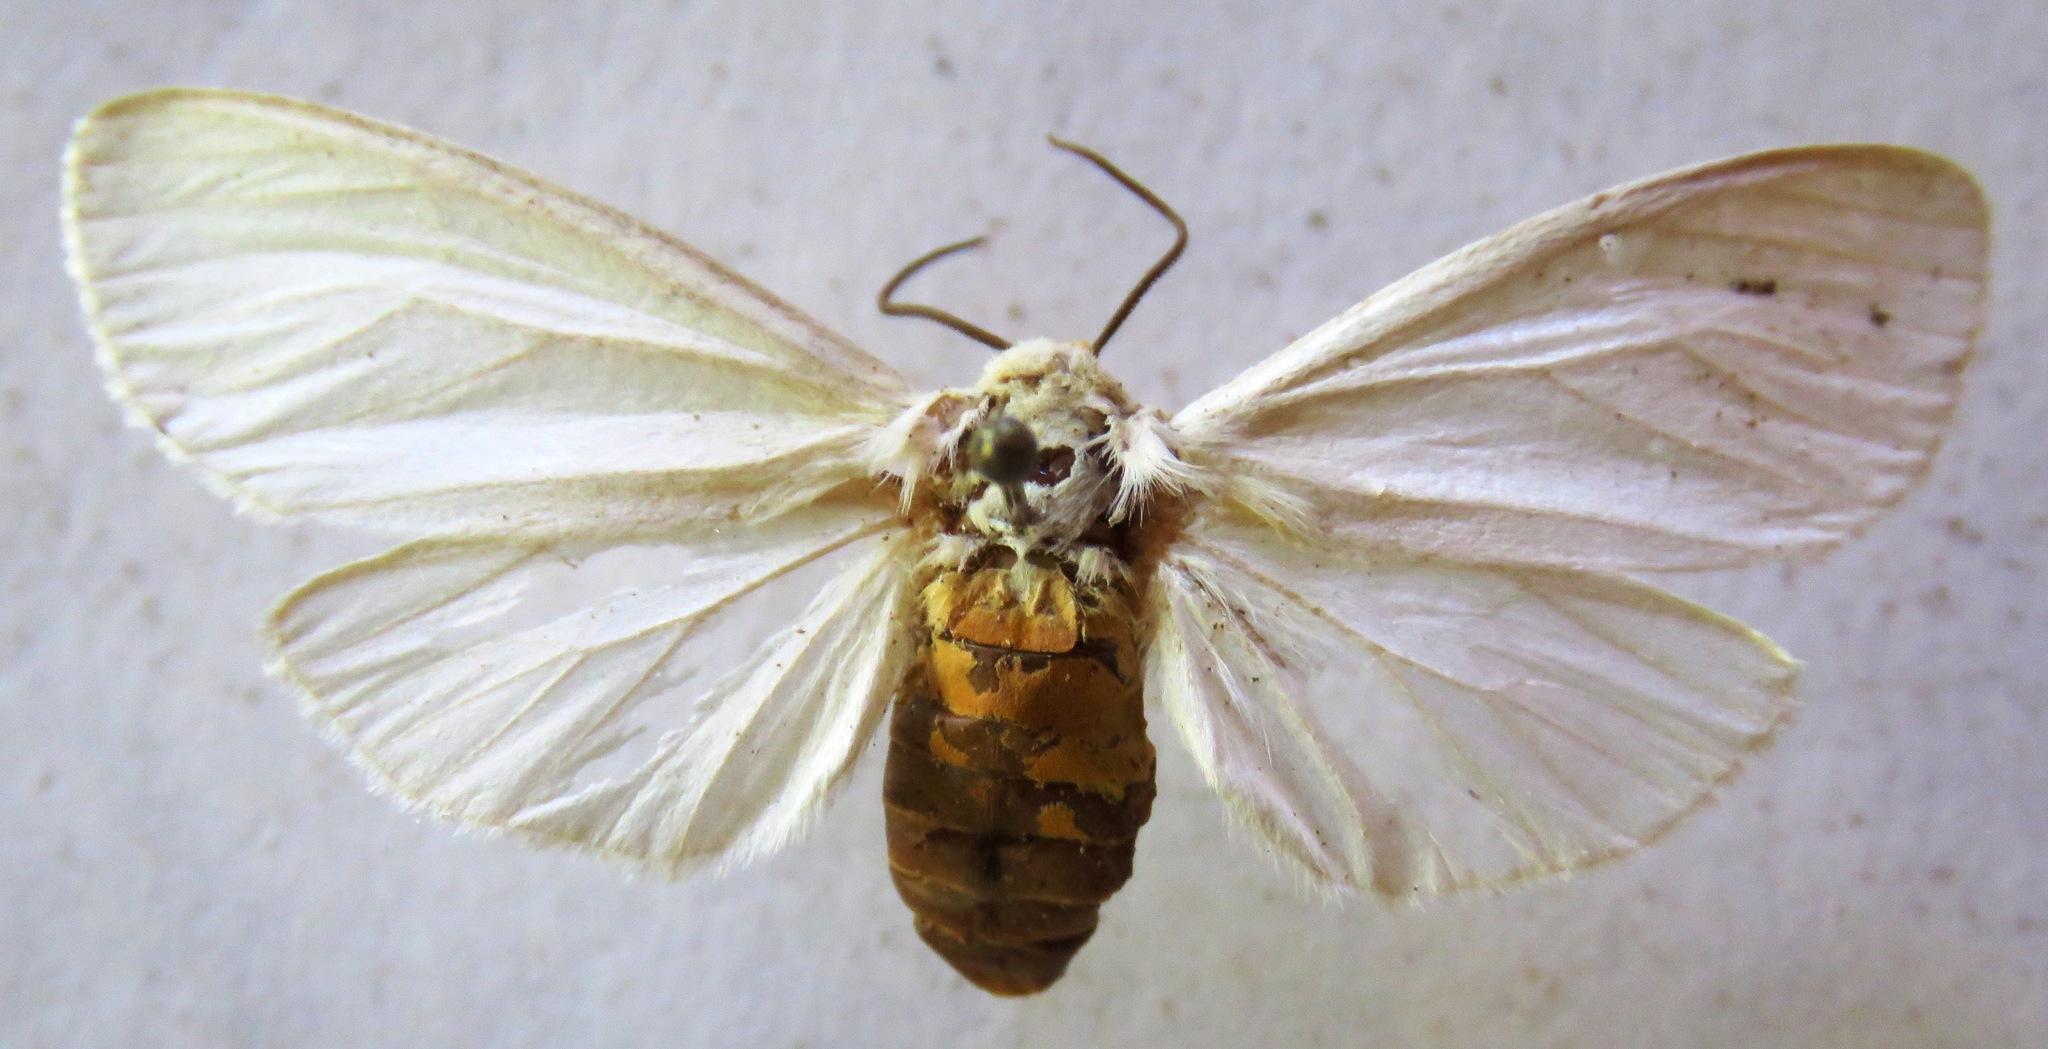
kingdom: Animalia
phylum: Arthropoda
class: Insecta
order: Lepidoptera
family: Erebidae
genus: Pygarctia
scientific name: Pygarctia roseicapitis
